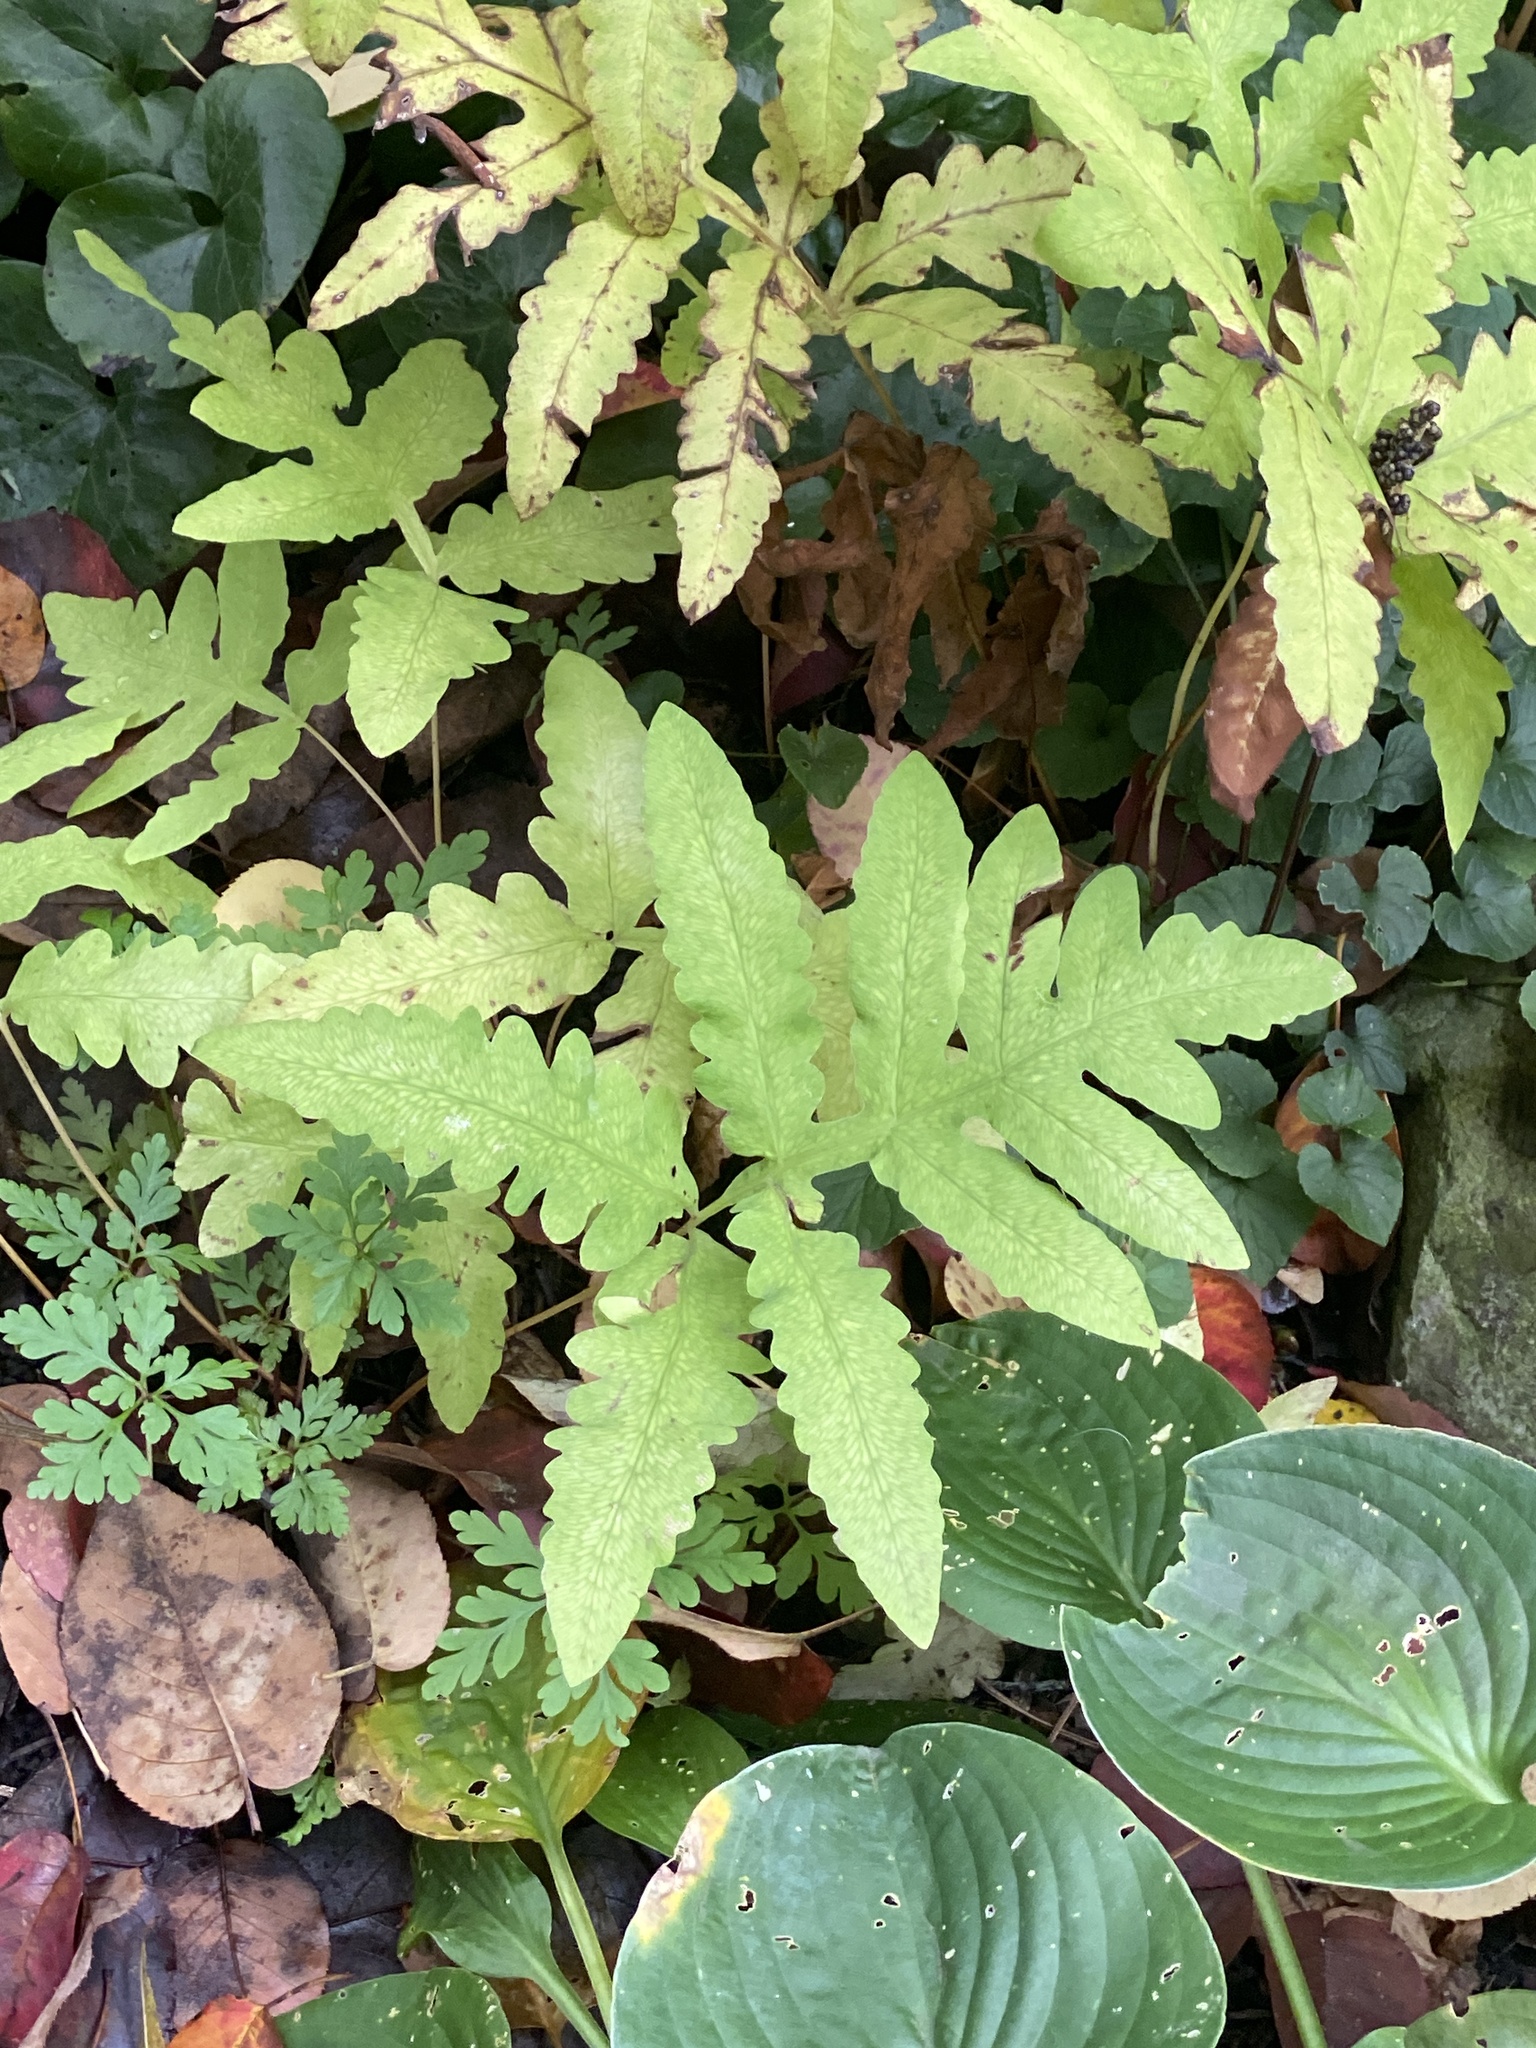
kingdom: Plantae
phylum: Tracheophyta
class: Polypodiopsida
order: Polypodiales
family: Onocleaceae
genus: Onoclea
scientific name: Onoclea sensibilis
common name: Sensitive fern
